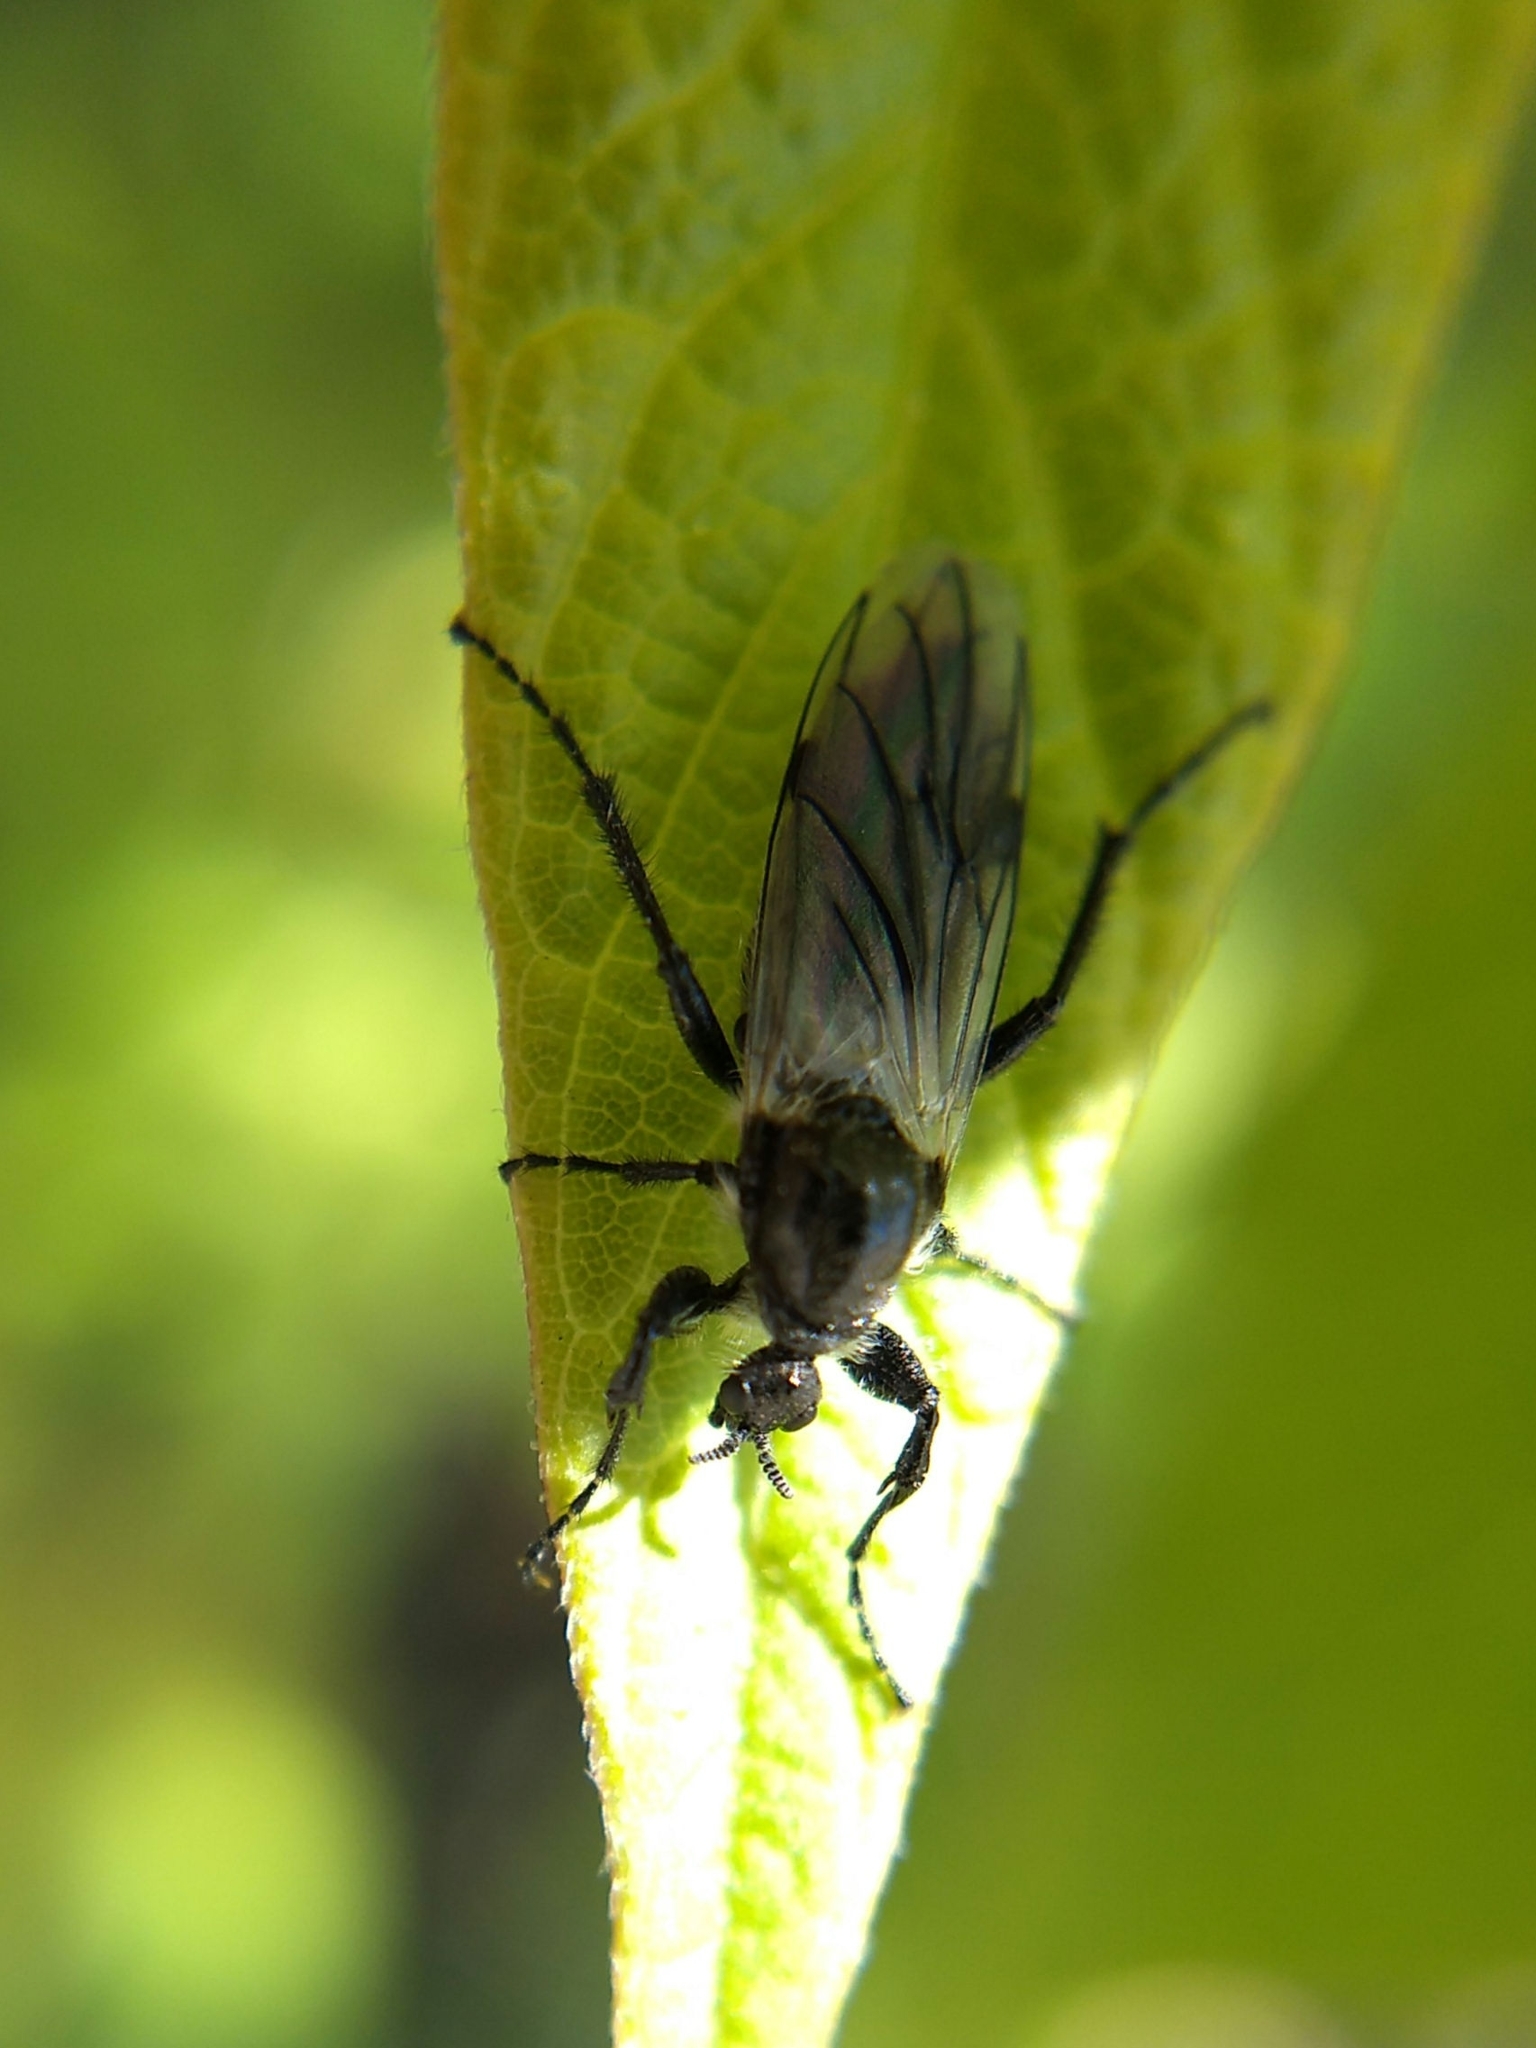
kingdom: Animalia
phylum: Arthropoda
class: Insecta
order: Diptera
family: Bibionidae
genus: Bibio
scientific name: Bibio albipennis
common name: White-winged march fly
